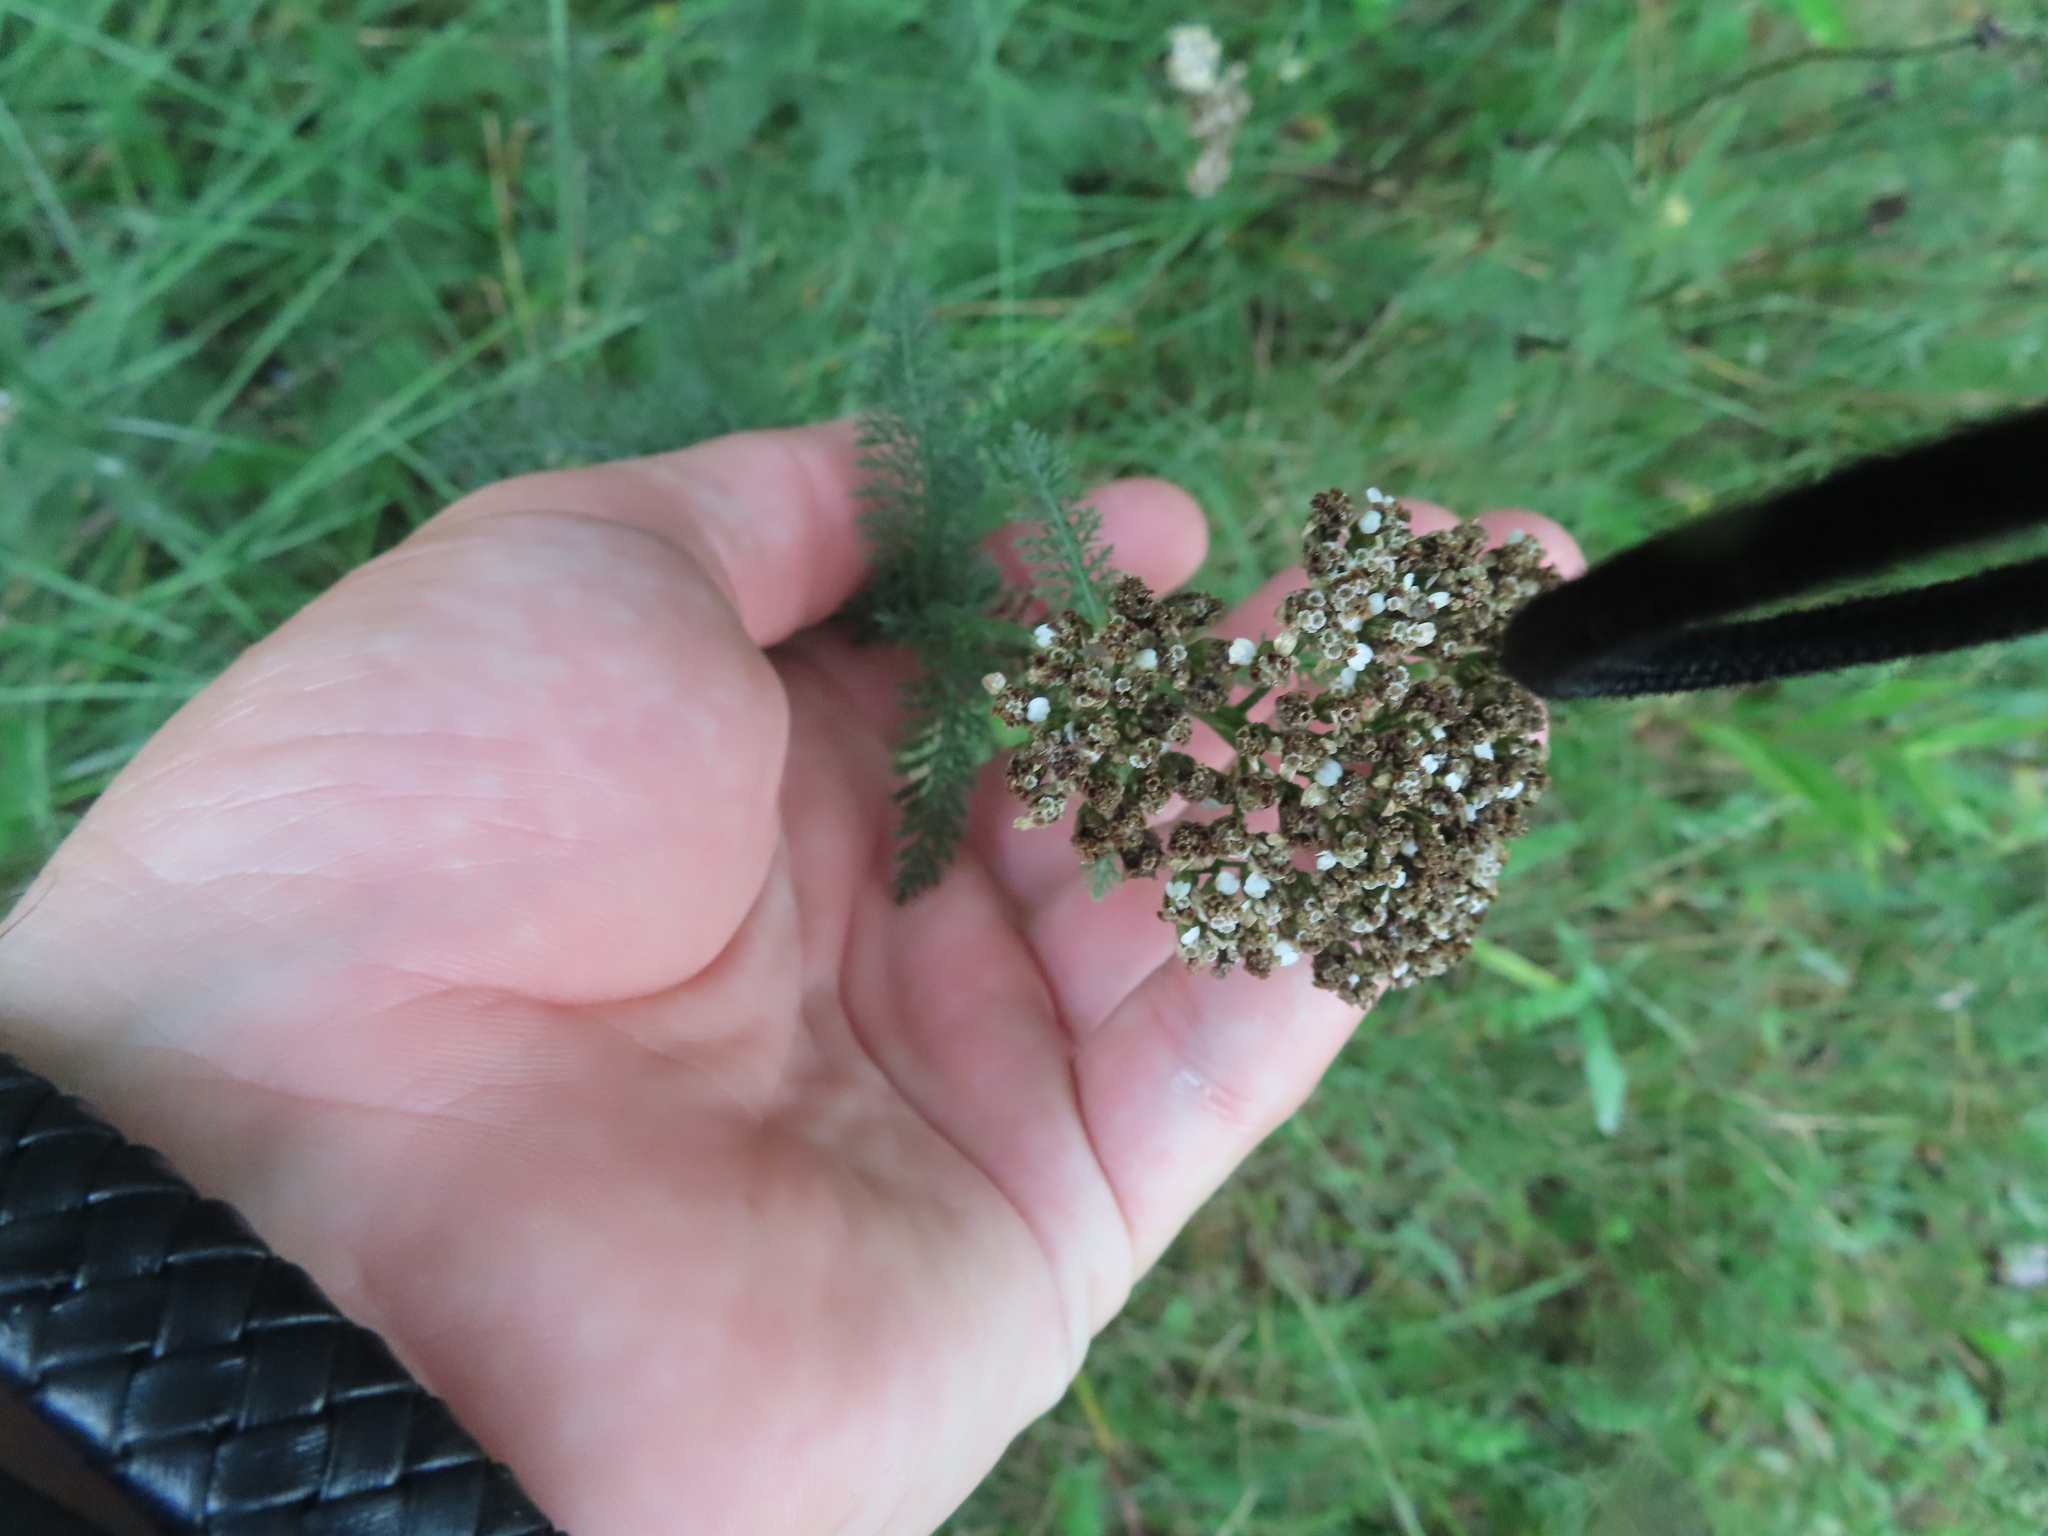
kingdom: Plantae
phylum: Tracheophyta
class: Magnoliopsida
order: Asterales
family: Asteraceae
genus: Achillea
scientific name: Achillea millefolium
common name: Yarrow
